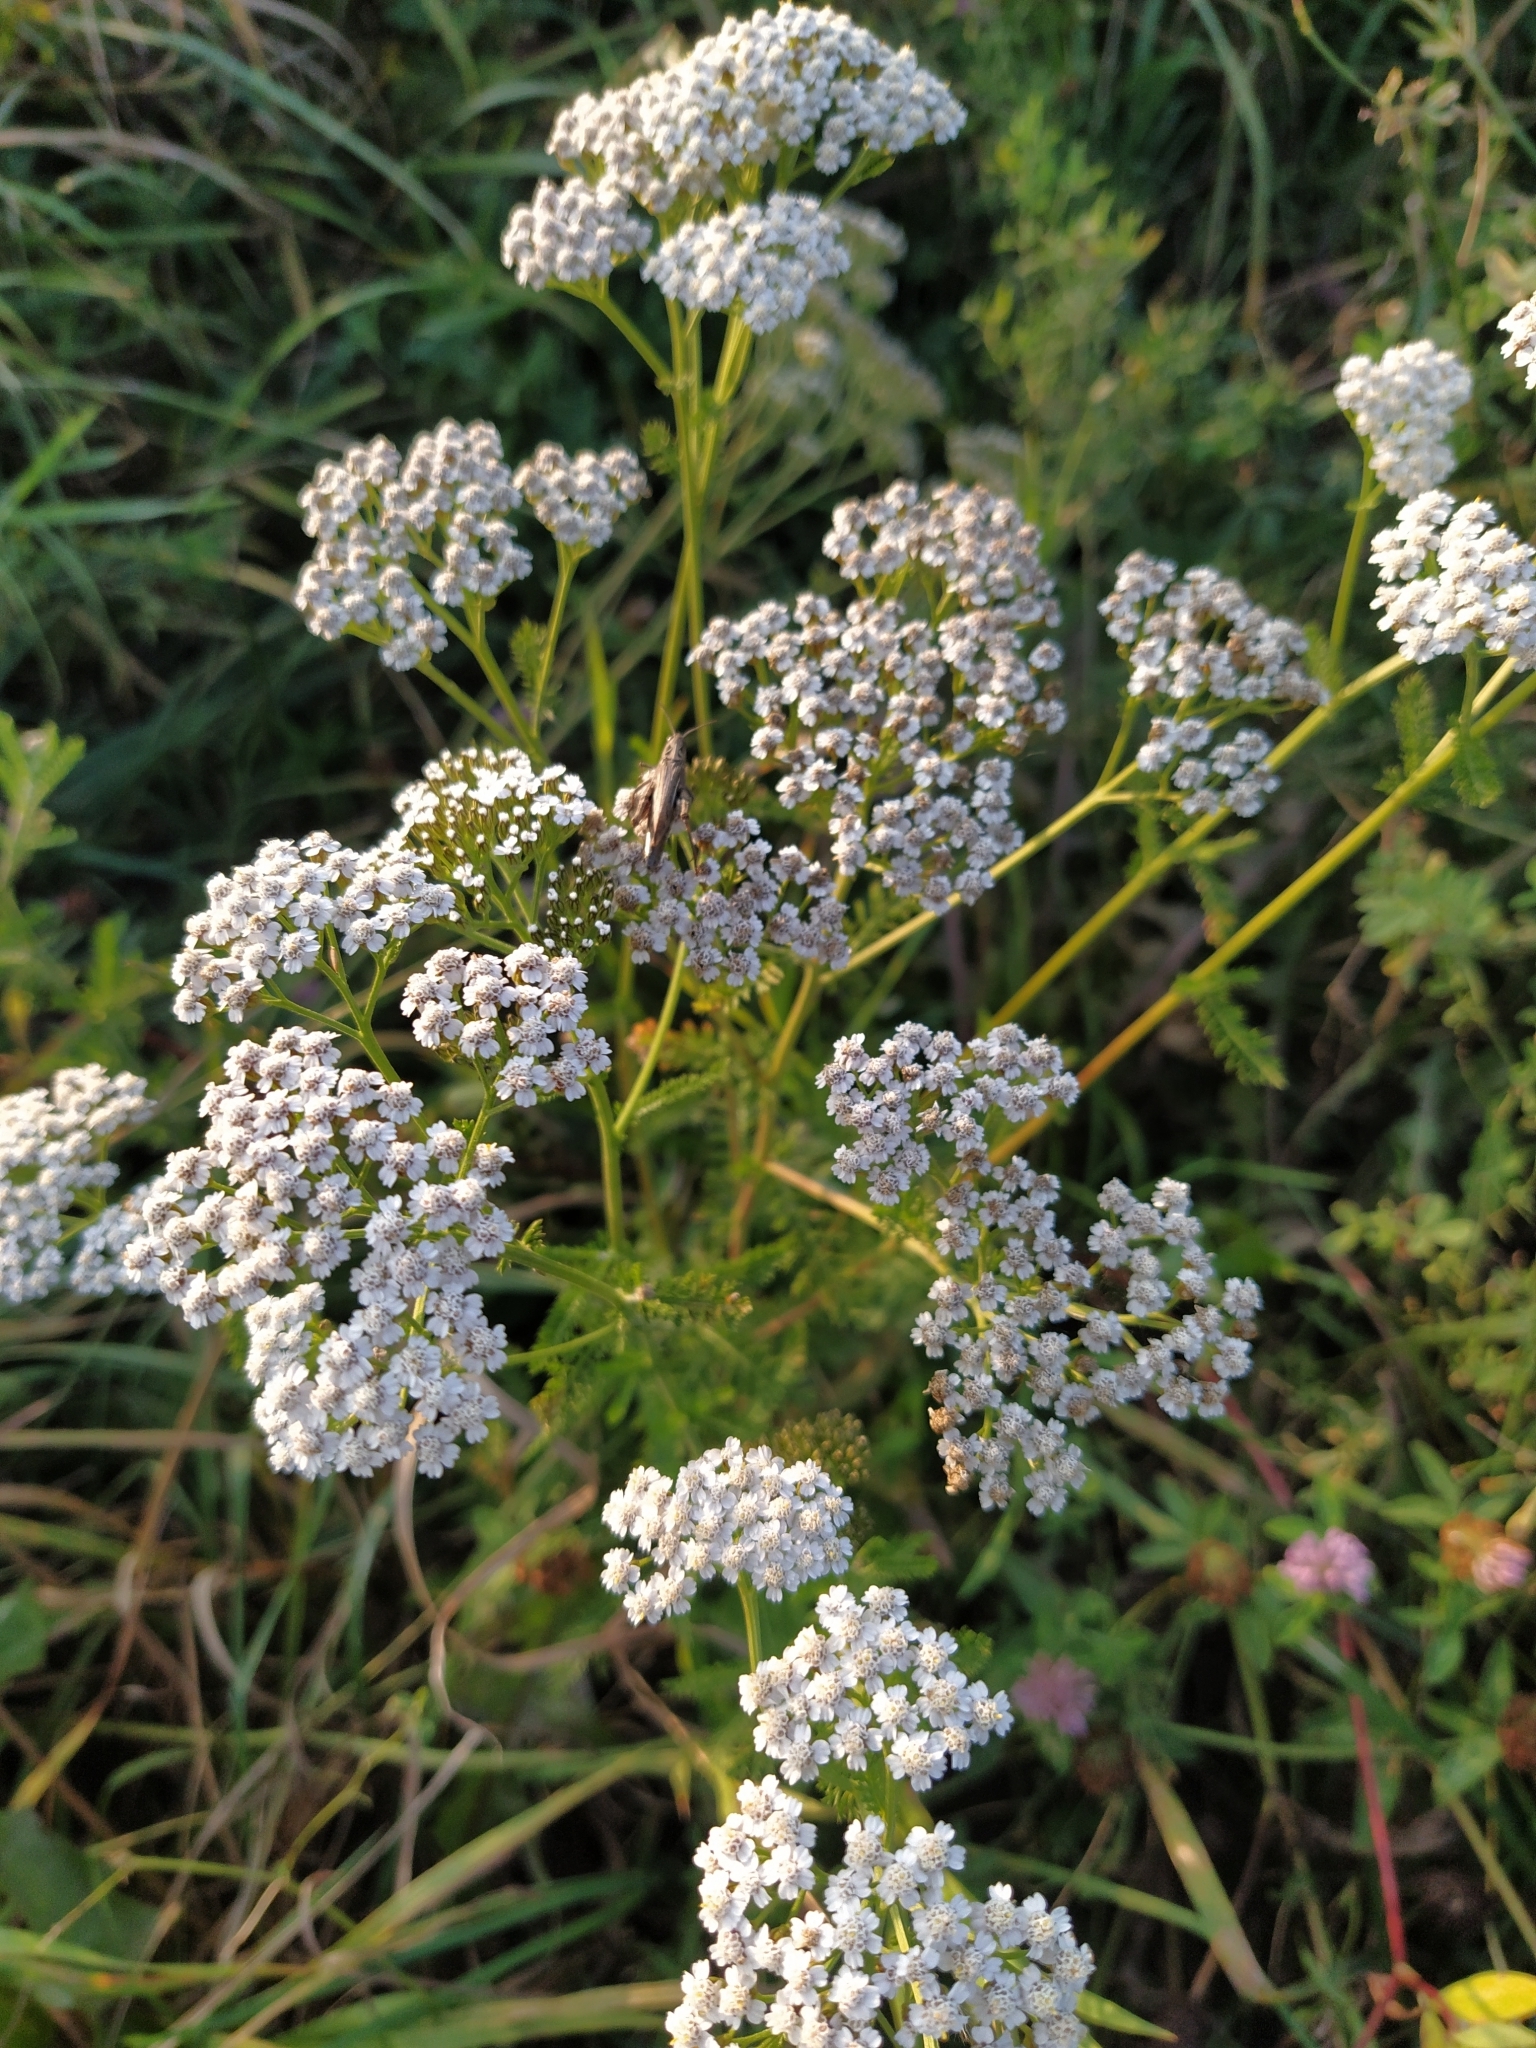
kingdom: Plantae
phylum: Tracheophyta
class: Magnoliopsida
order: Asterales
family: Asteraceae
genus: Achillea
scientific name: Achillea millefolium
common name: Yarrow
